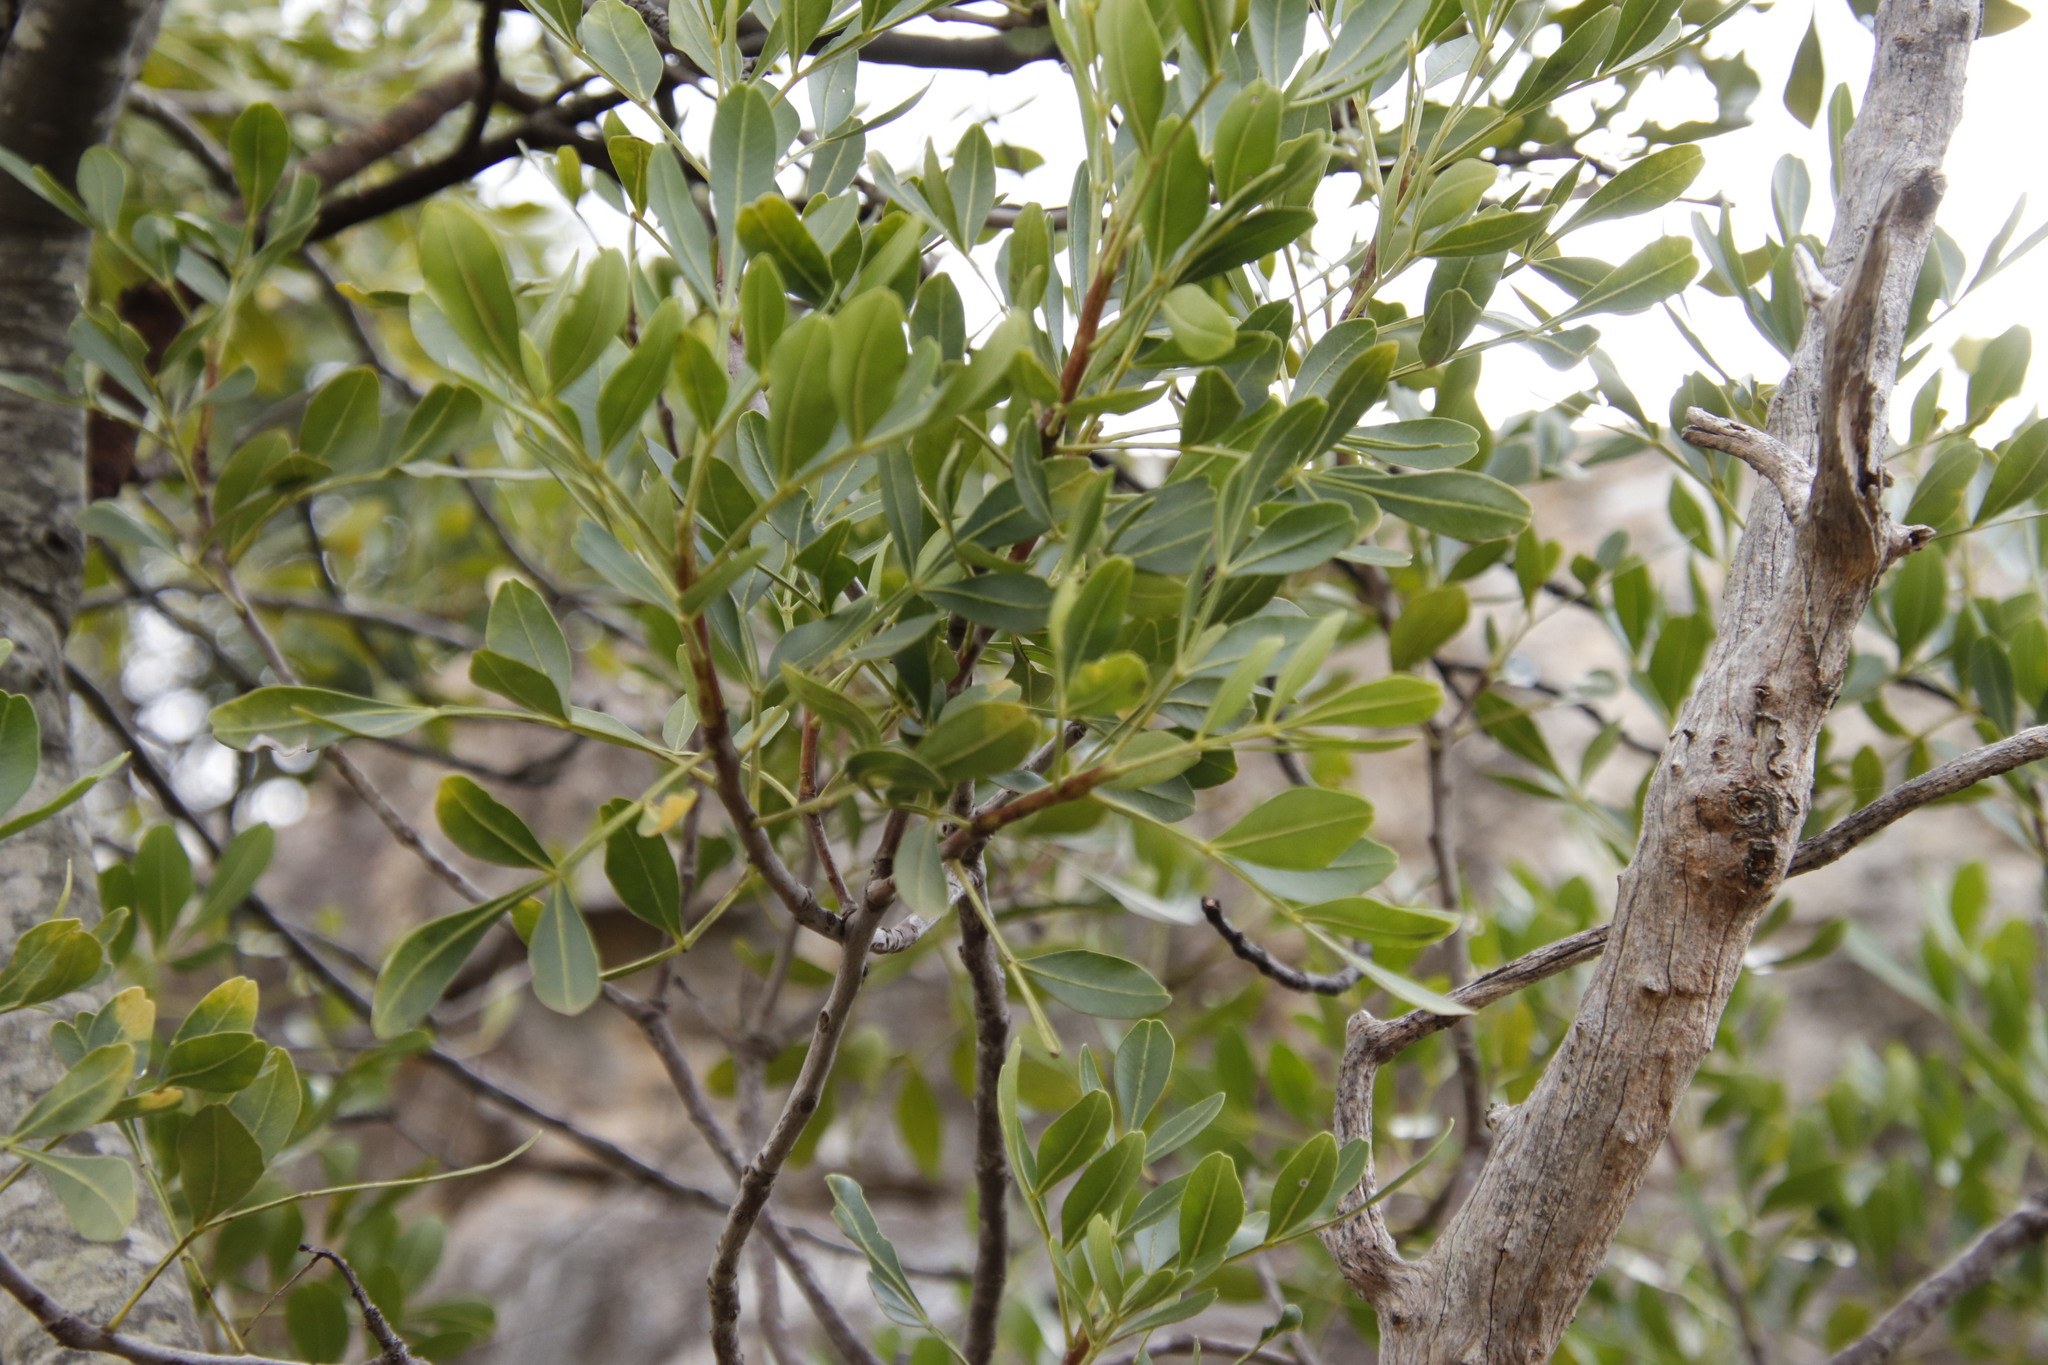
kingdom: Plantae
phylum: Tracheophyta
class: Magnoliopsida
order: Sapindales
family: Meliaceae
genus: Ekebergia
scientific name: Ekebergia pterophylla
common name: Cape ash
